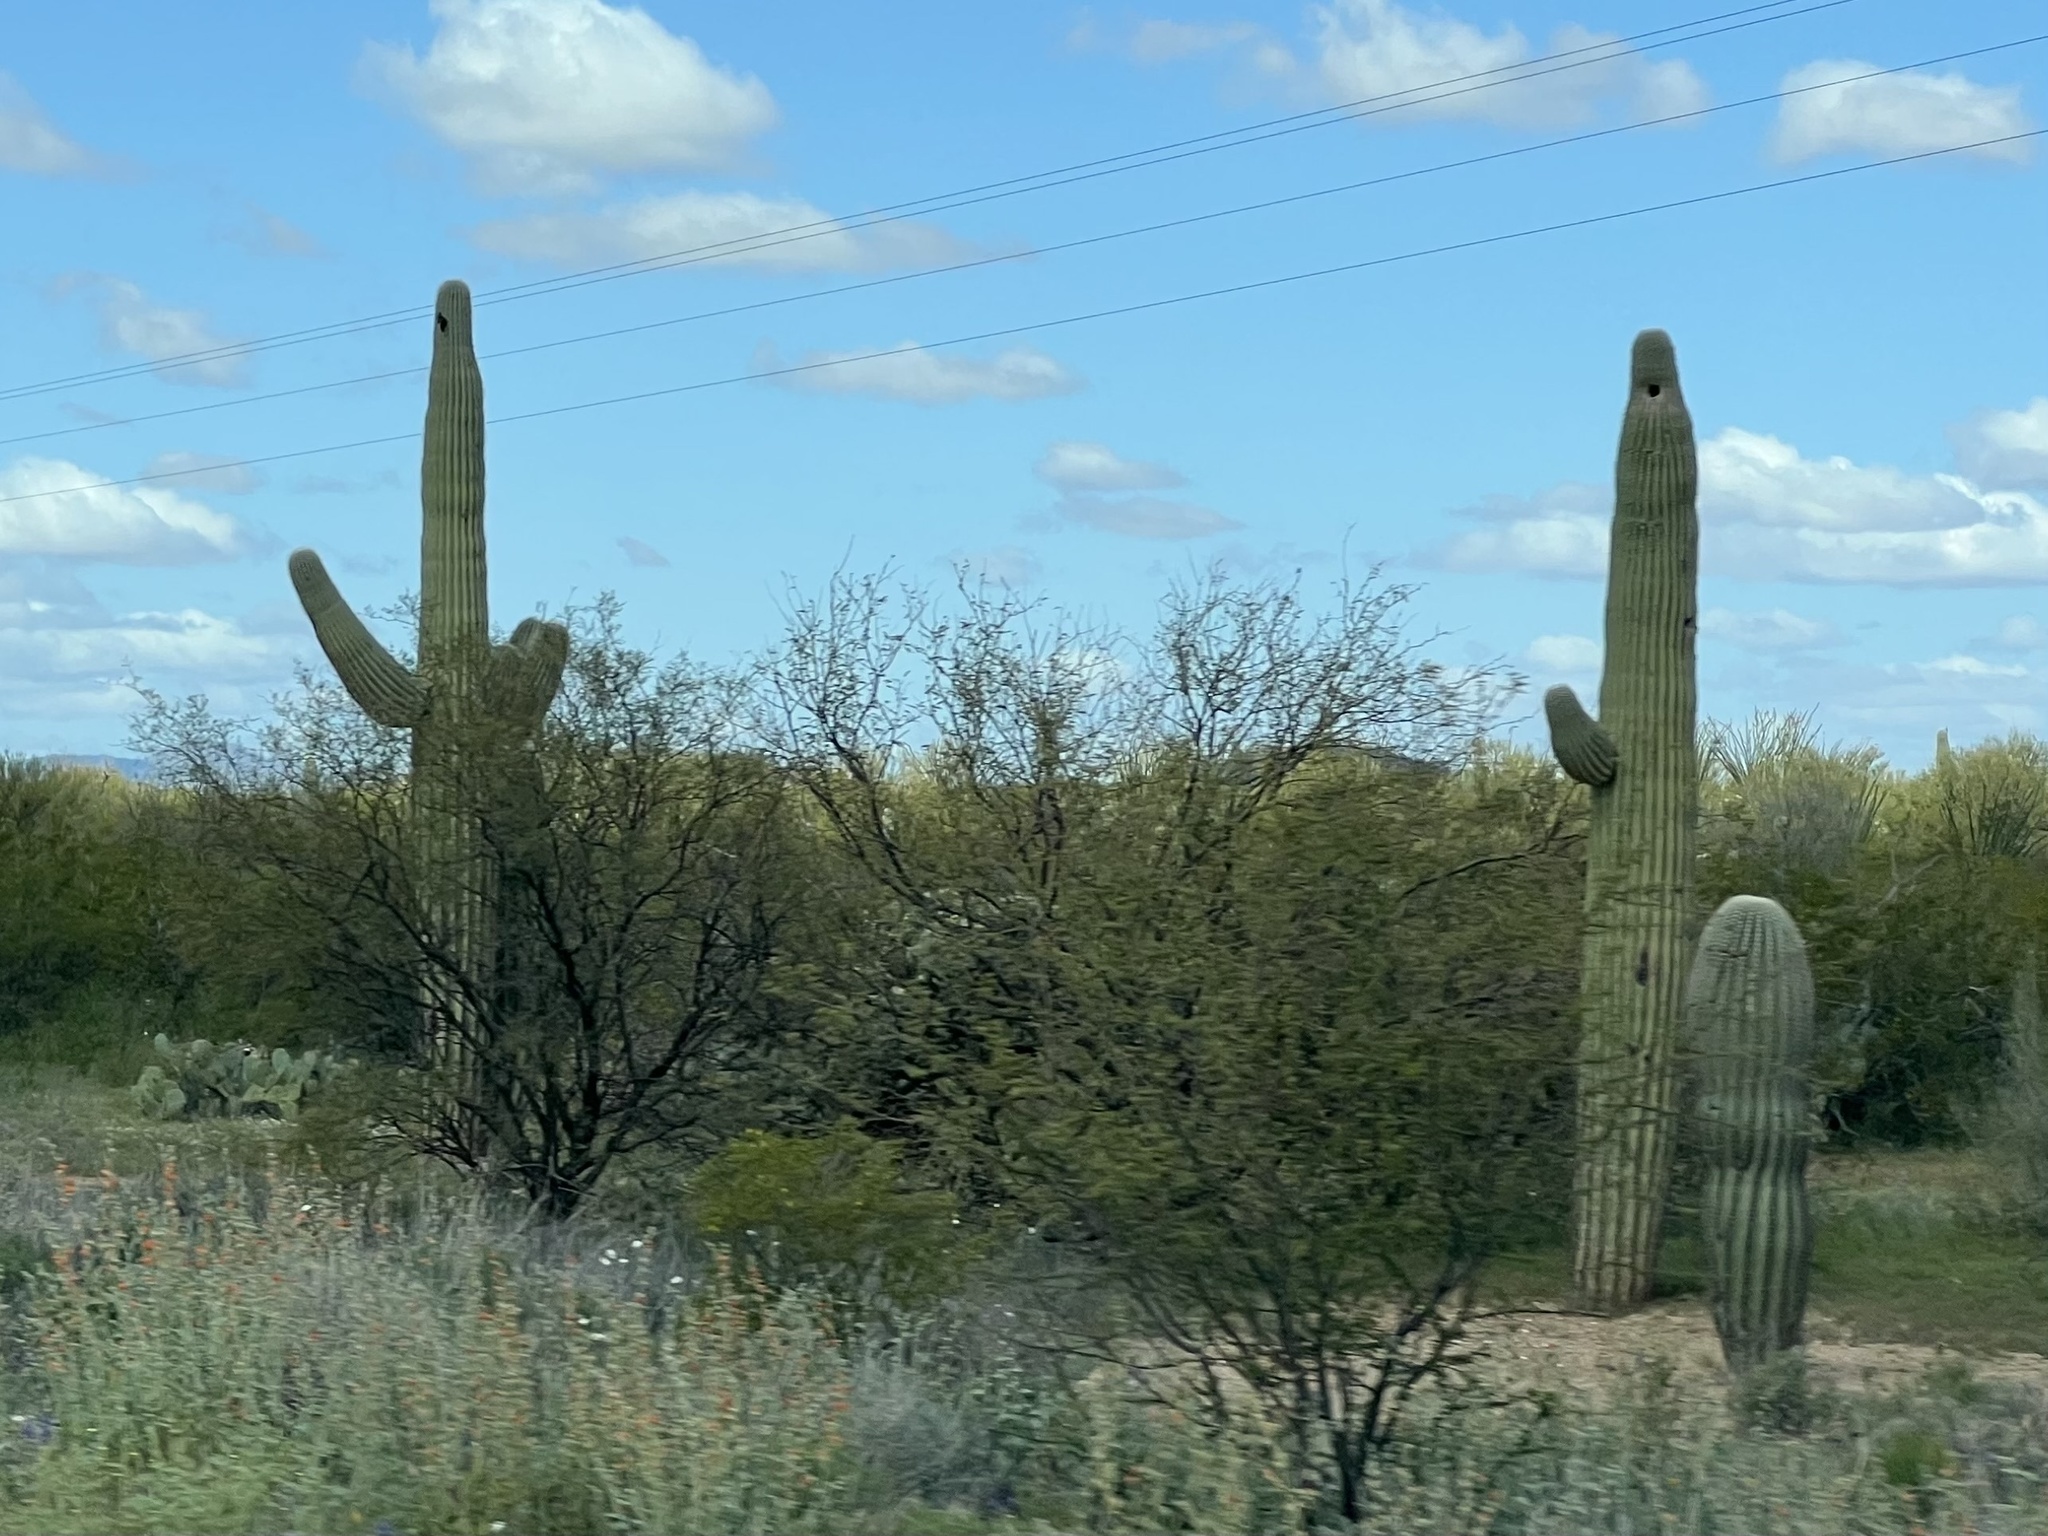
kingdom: Plantae
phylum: Tracheophyta
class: Magnoliopsida
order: Caryophyllales
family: Cactaceae
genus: Carnegiea
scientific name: Carnegiea gigantea
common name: Saguaro
